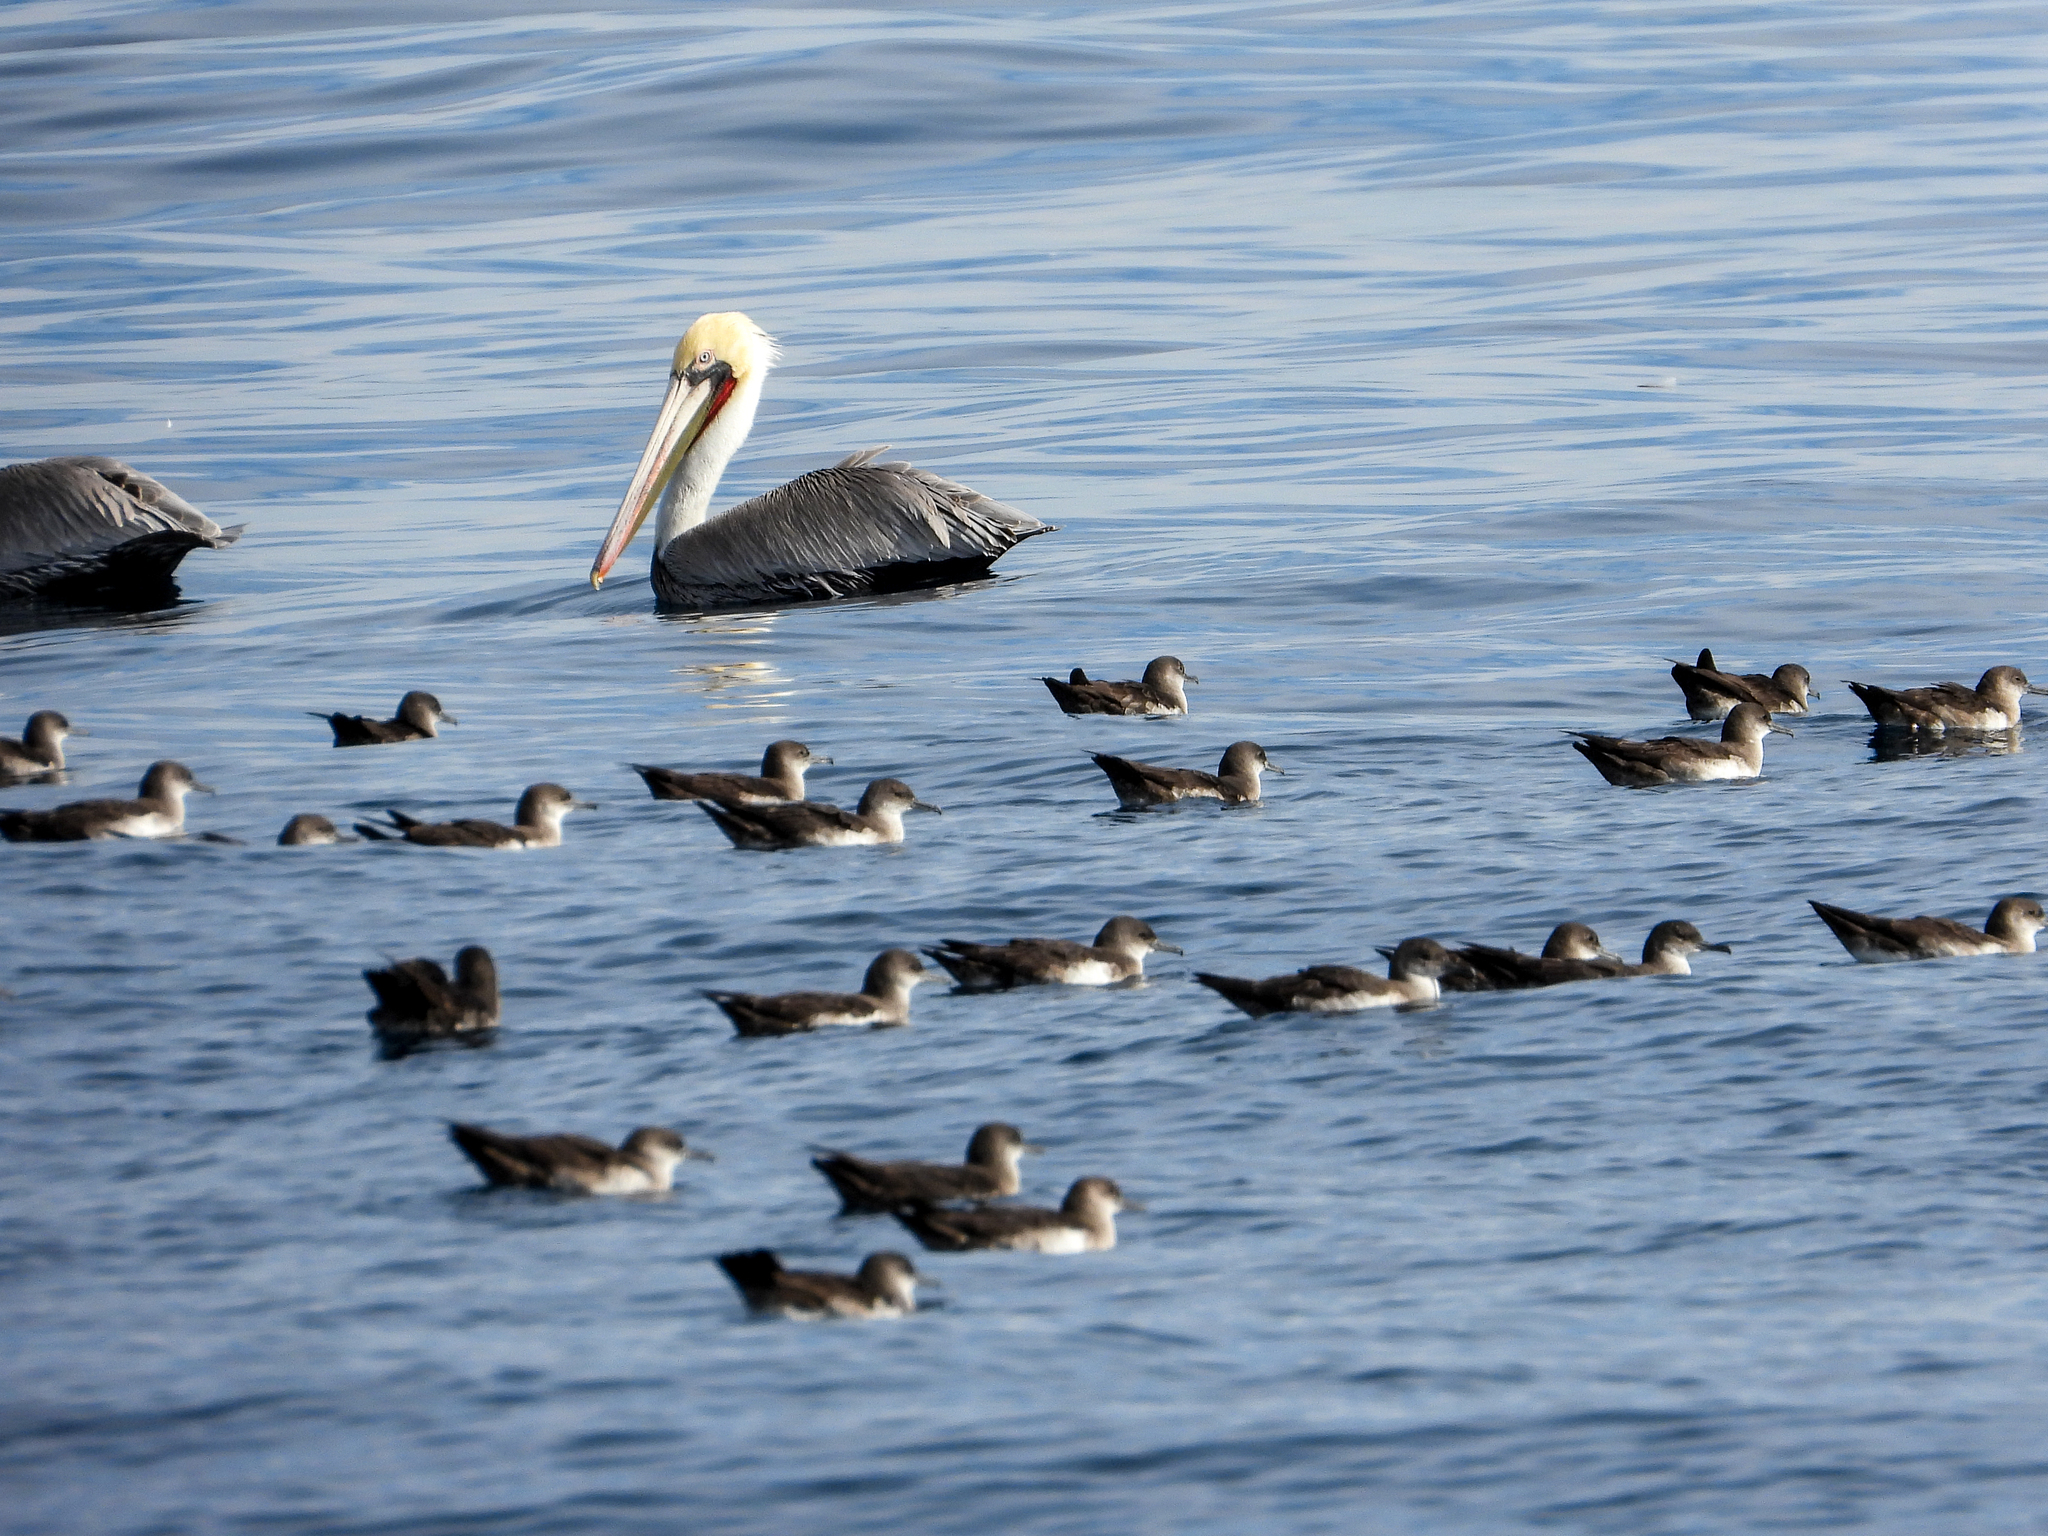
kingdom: Animalia
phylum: Chordata
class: Aves
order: Pelecaniformes
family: Pelecanidae
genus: Pelecanus
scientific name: Pelecanus occidentalis
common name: Brown pelican
